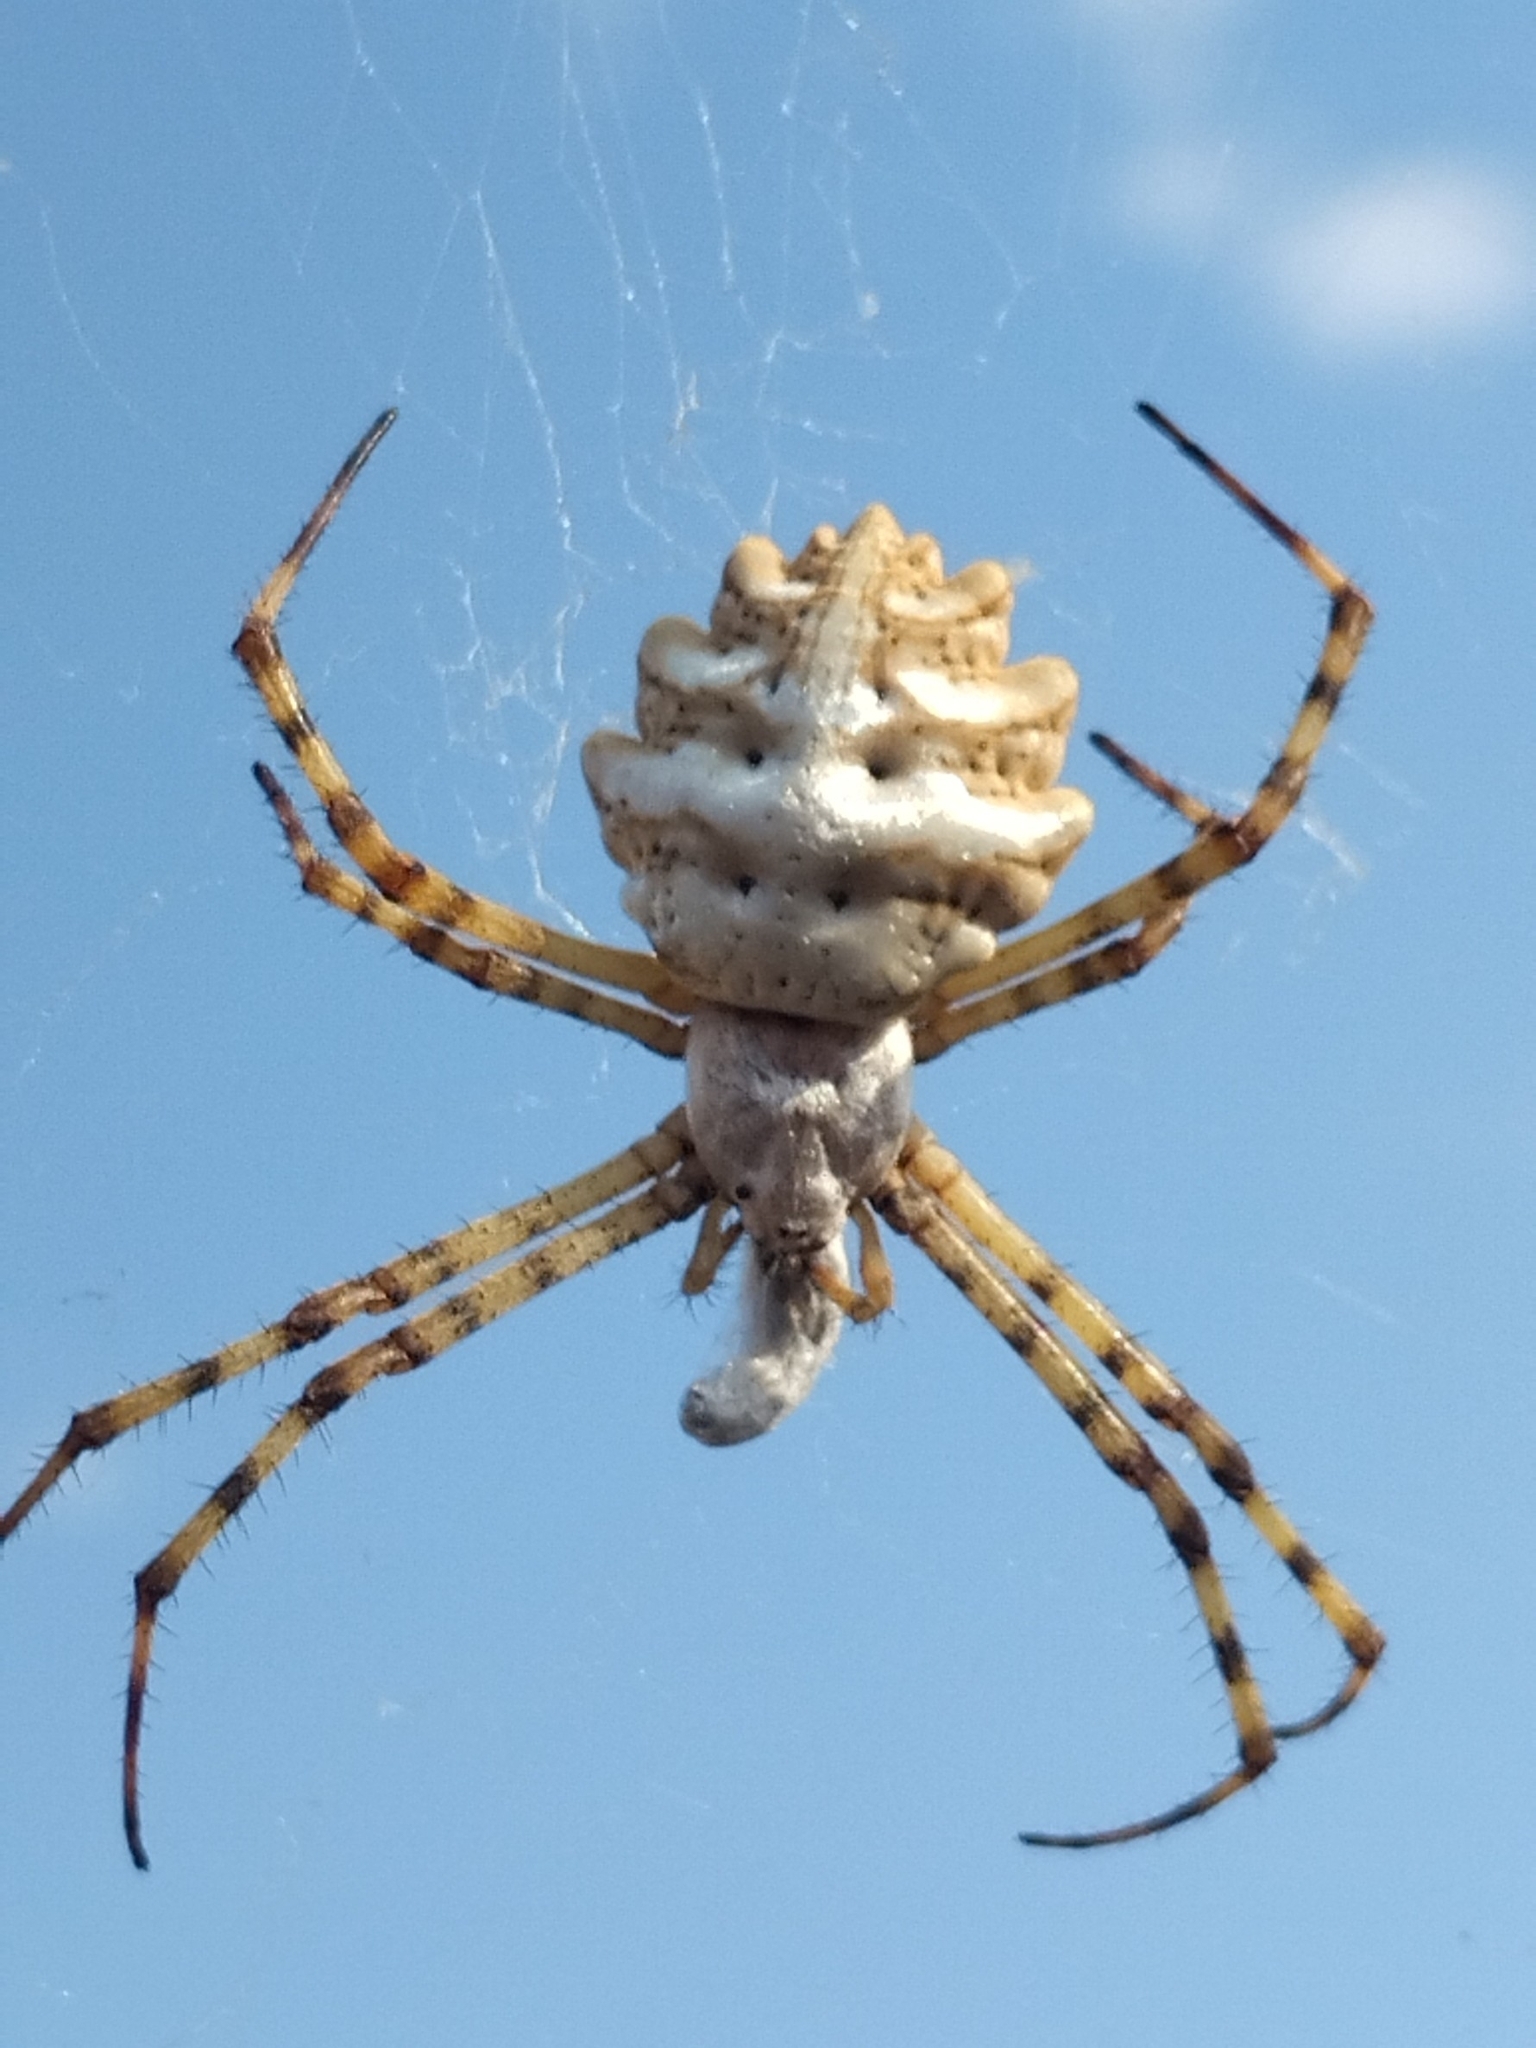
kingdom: Animalia
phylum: Arthropoda
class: Arachnida
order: Araneae
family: Araneidae
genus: Argiope
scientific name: Argiope lobata
